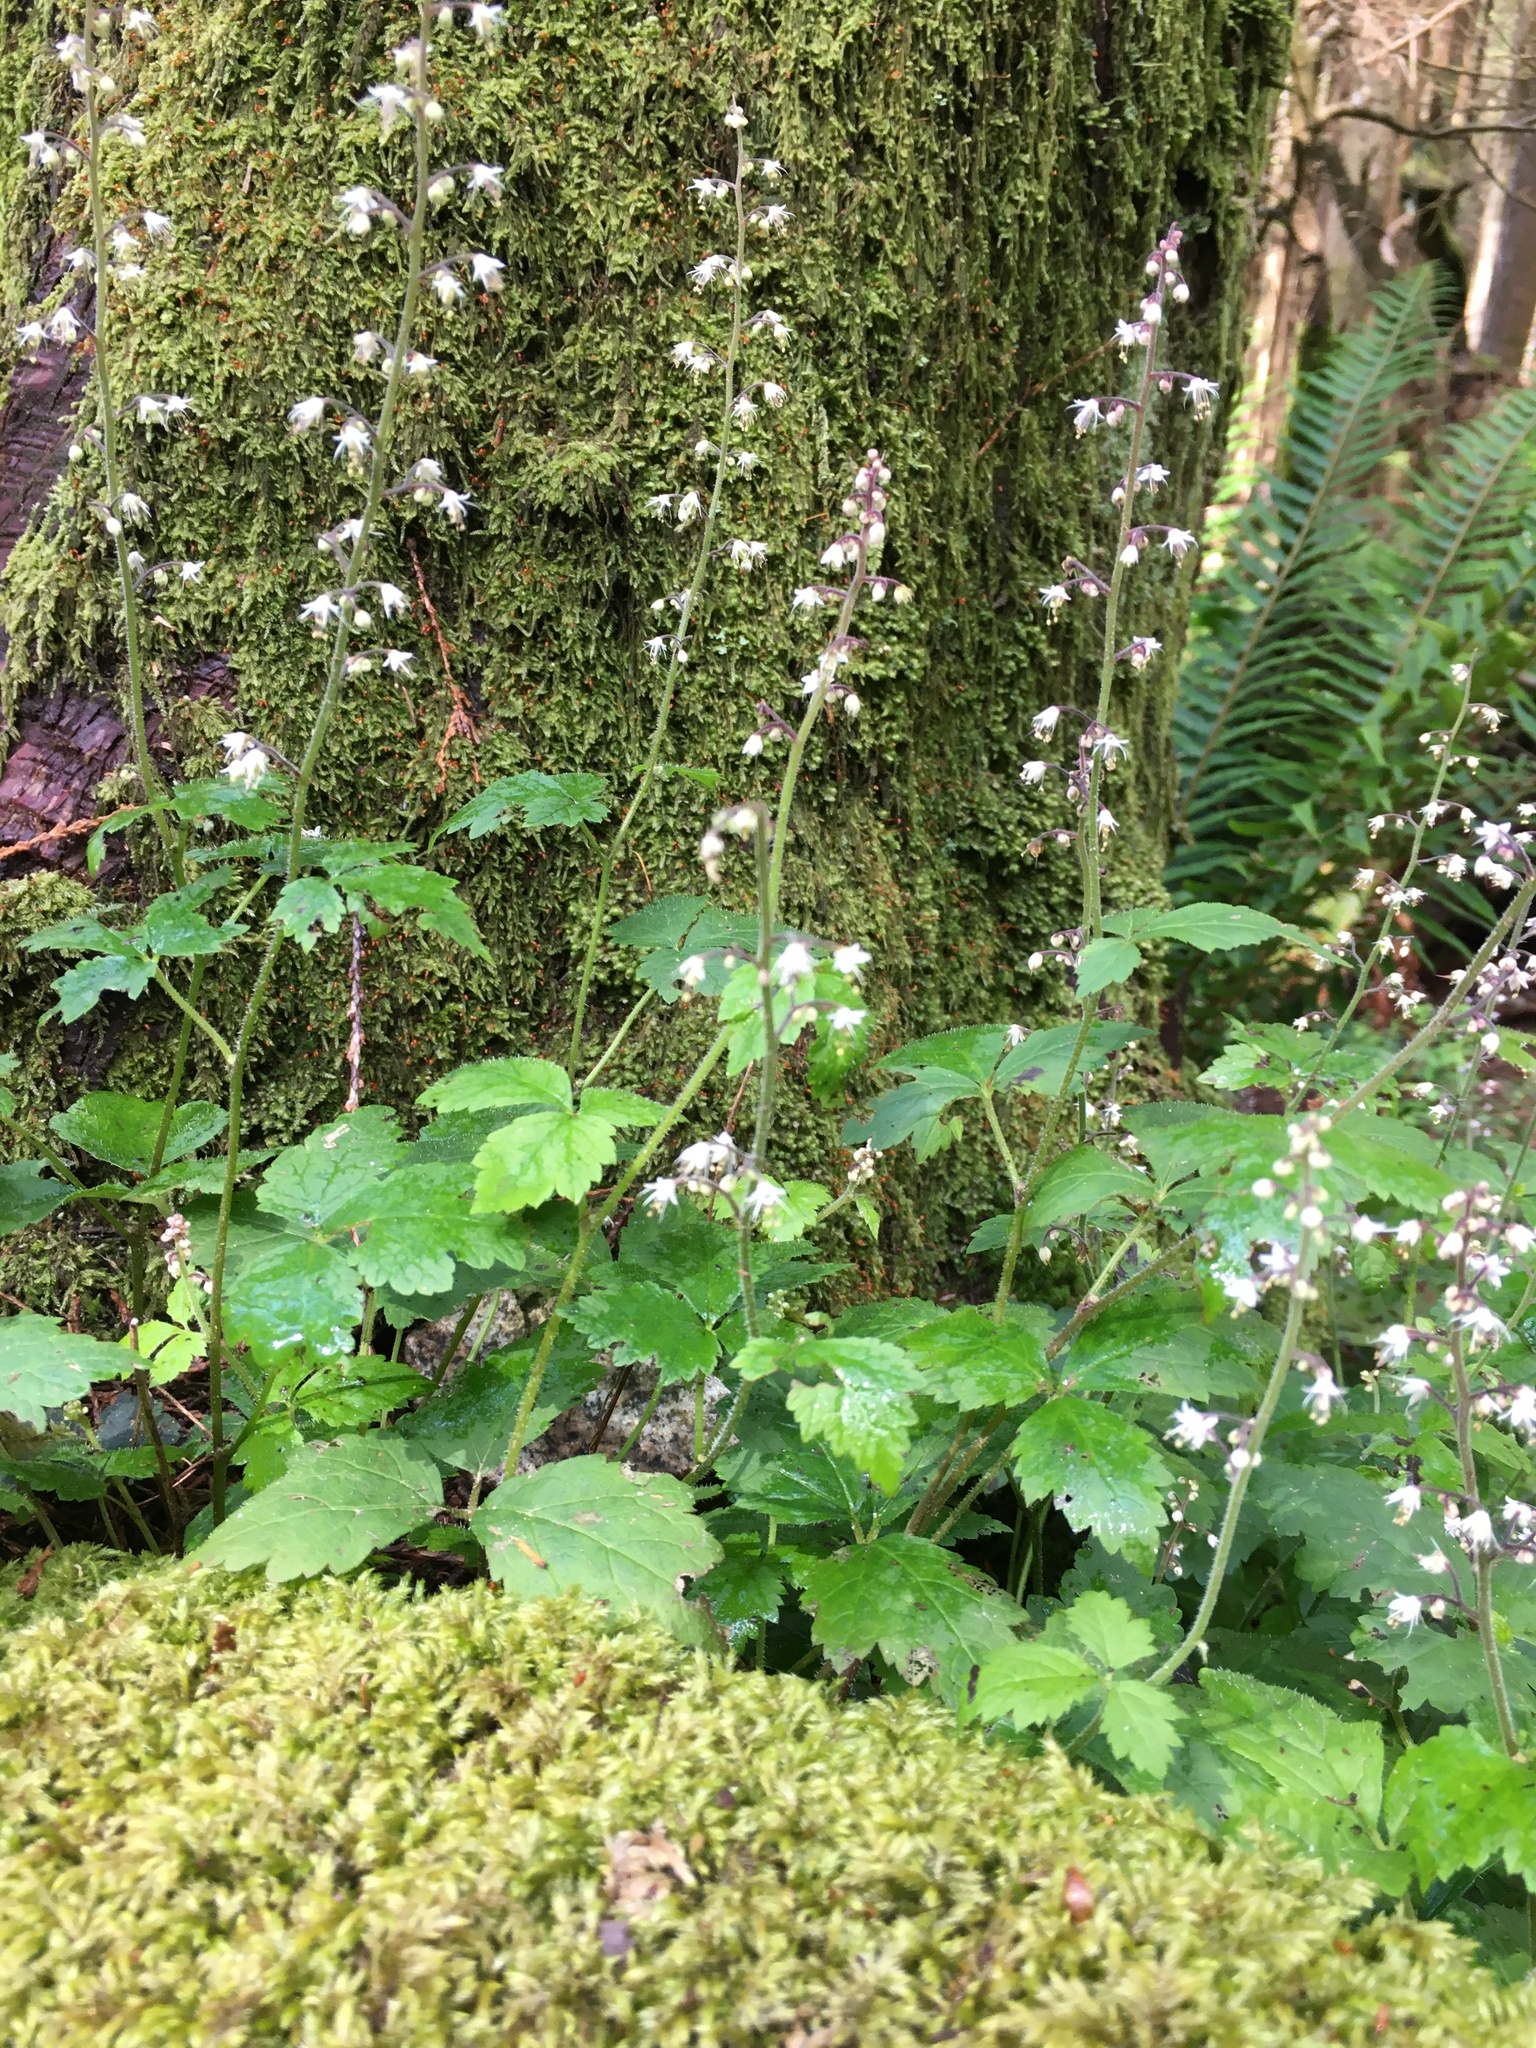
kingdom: Plantae
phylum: Tracheophyta
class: Magnoliopsida
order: Saxifragales
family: Saxifragaceae
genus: Tiarella
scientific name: Tiarella trifoliata
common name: Sugar-scoop
